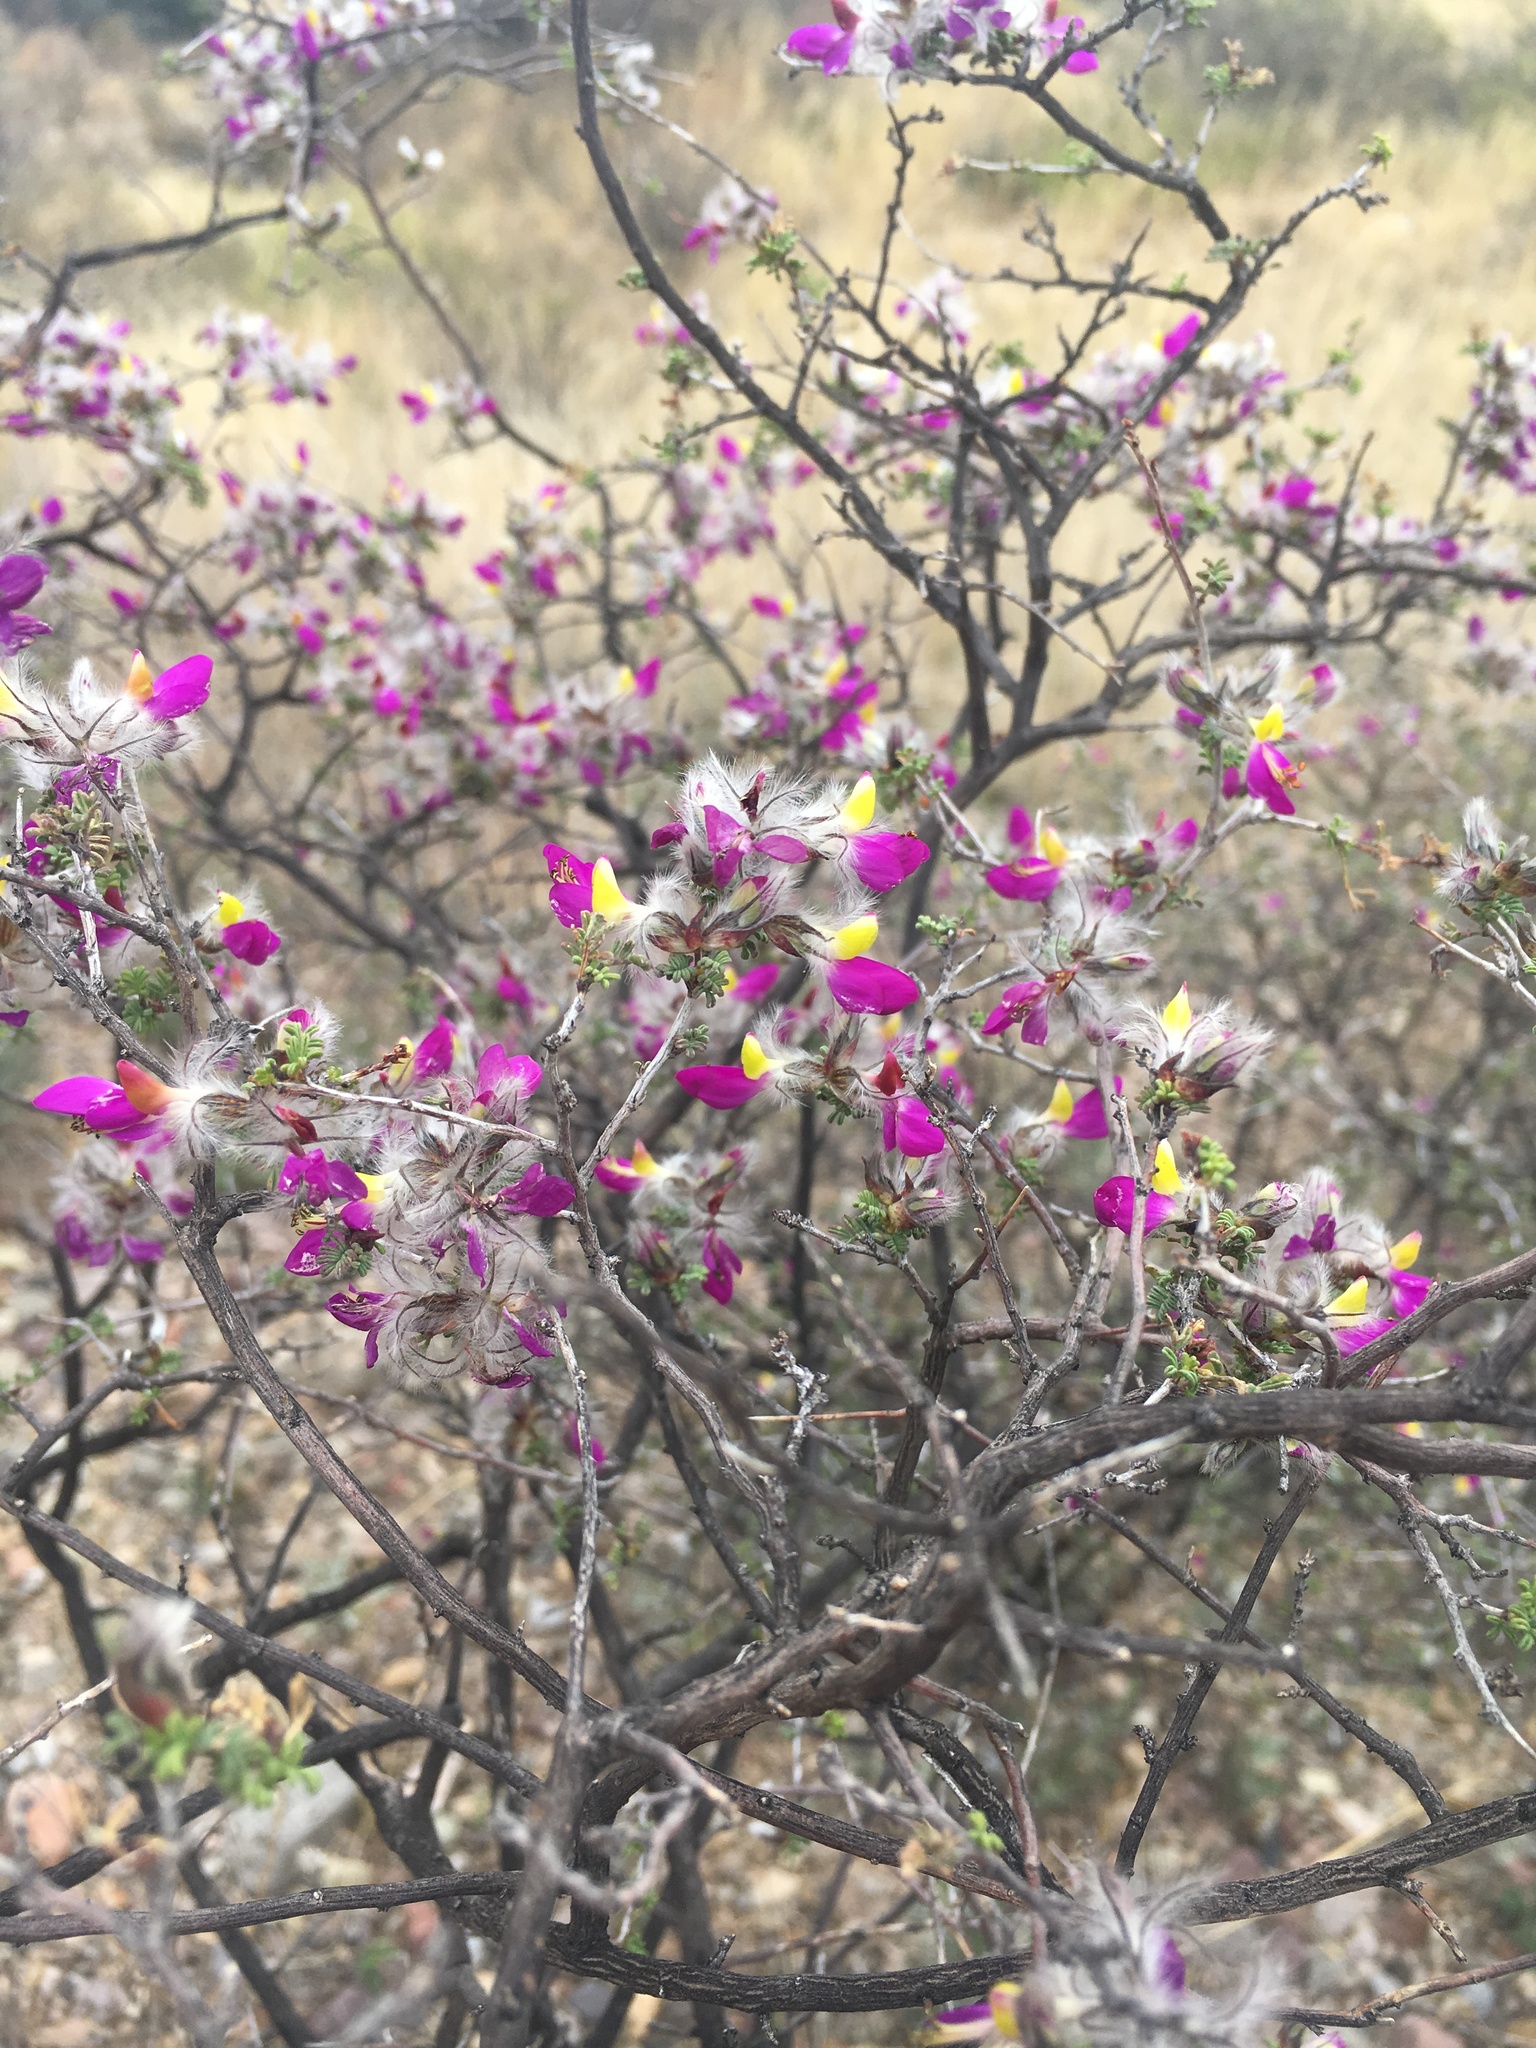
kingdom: Plantae
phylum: Tracheophyta
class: Magnoliopsida
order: Fabales
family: Fabaceae
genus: Dalea
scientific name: Dalea formosa
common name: Feather-plume dalea
